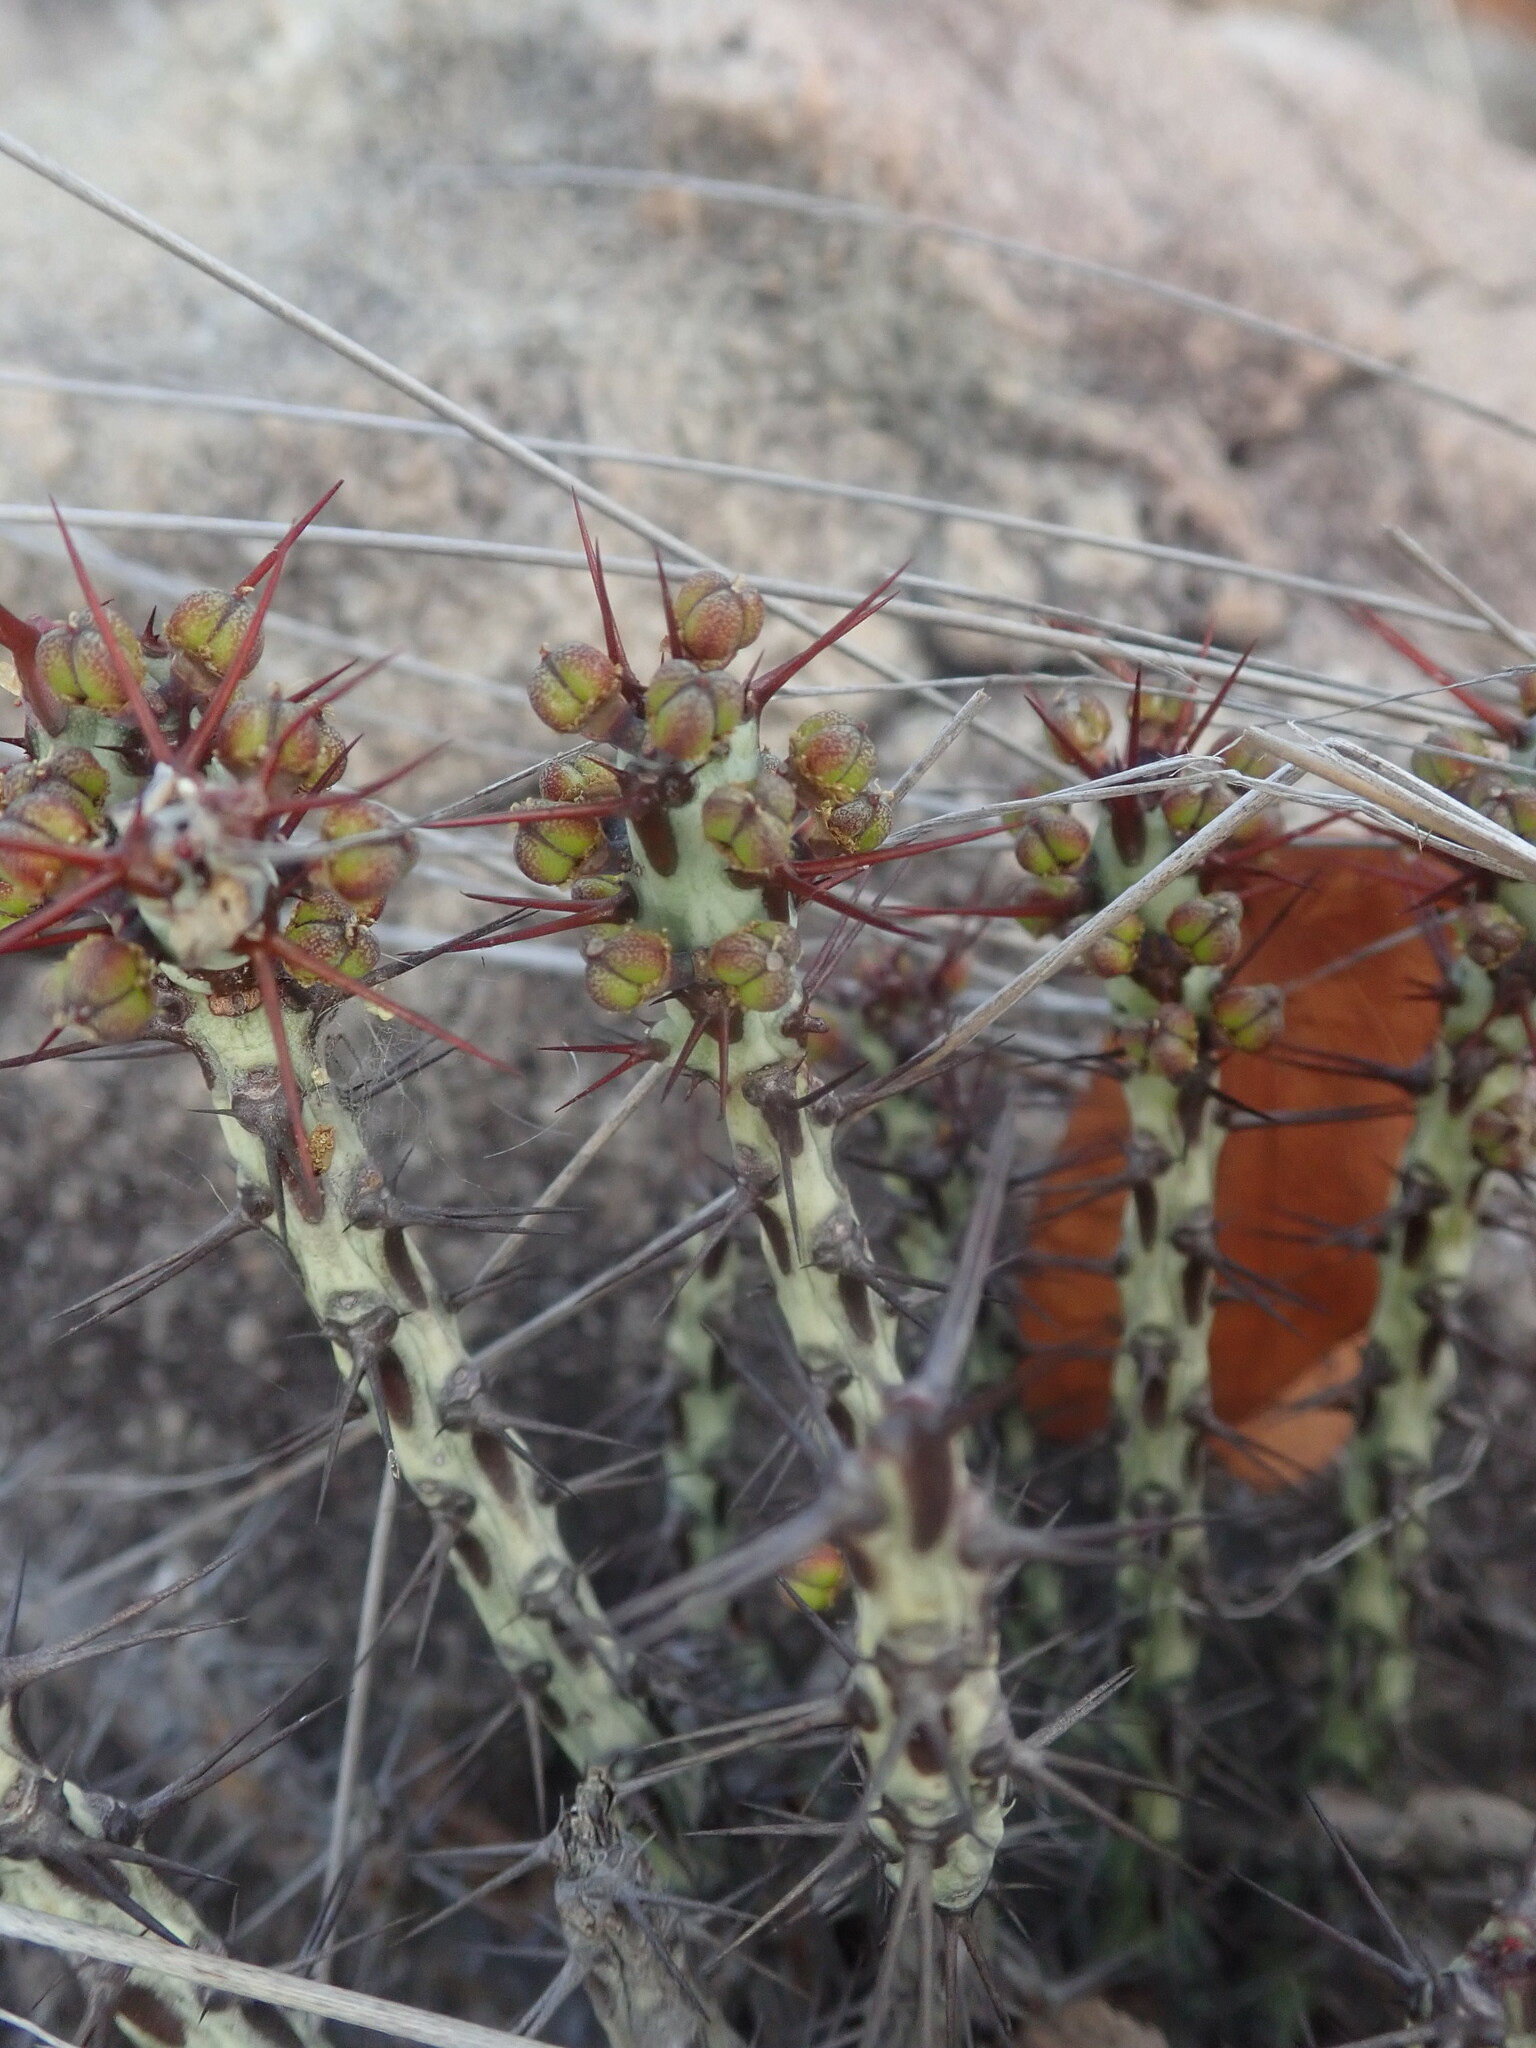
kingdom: Plantae
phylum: Tracheophyta
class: Magnoliopsida
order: Malpighiales
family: Euphorbiaceae
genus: Euphorbia
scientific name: Euphorbia aeruginosa
